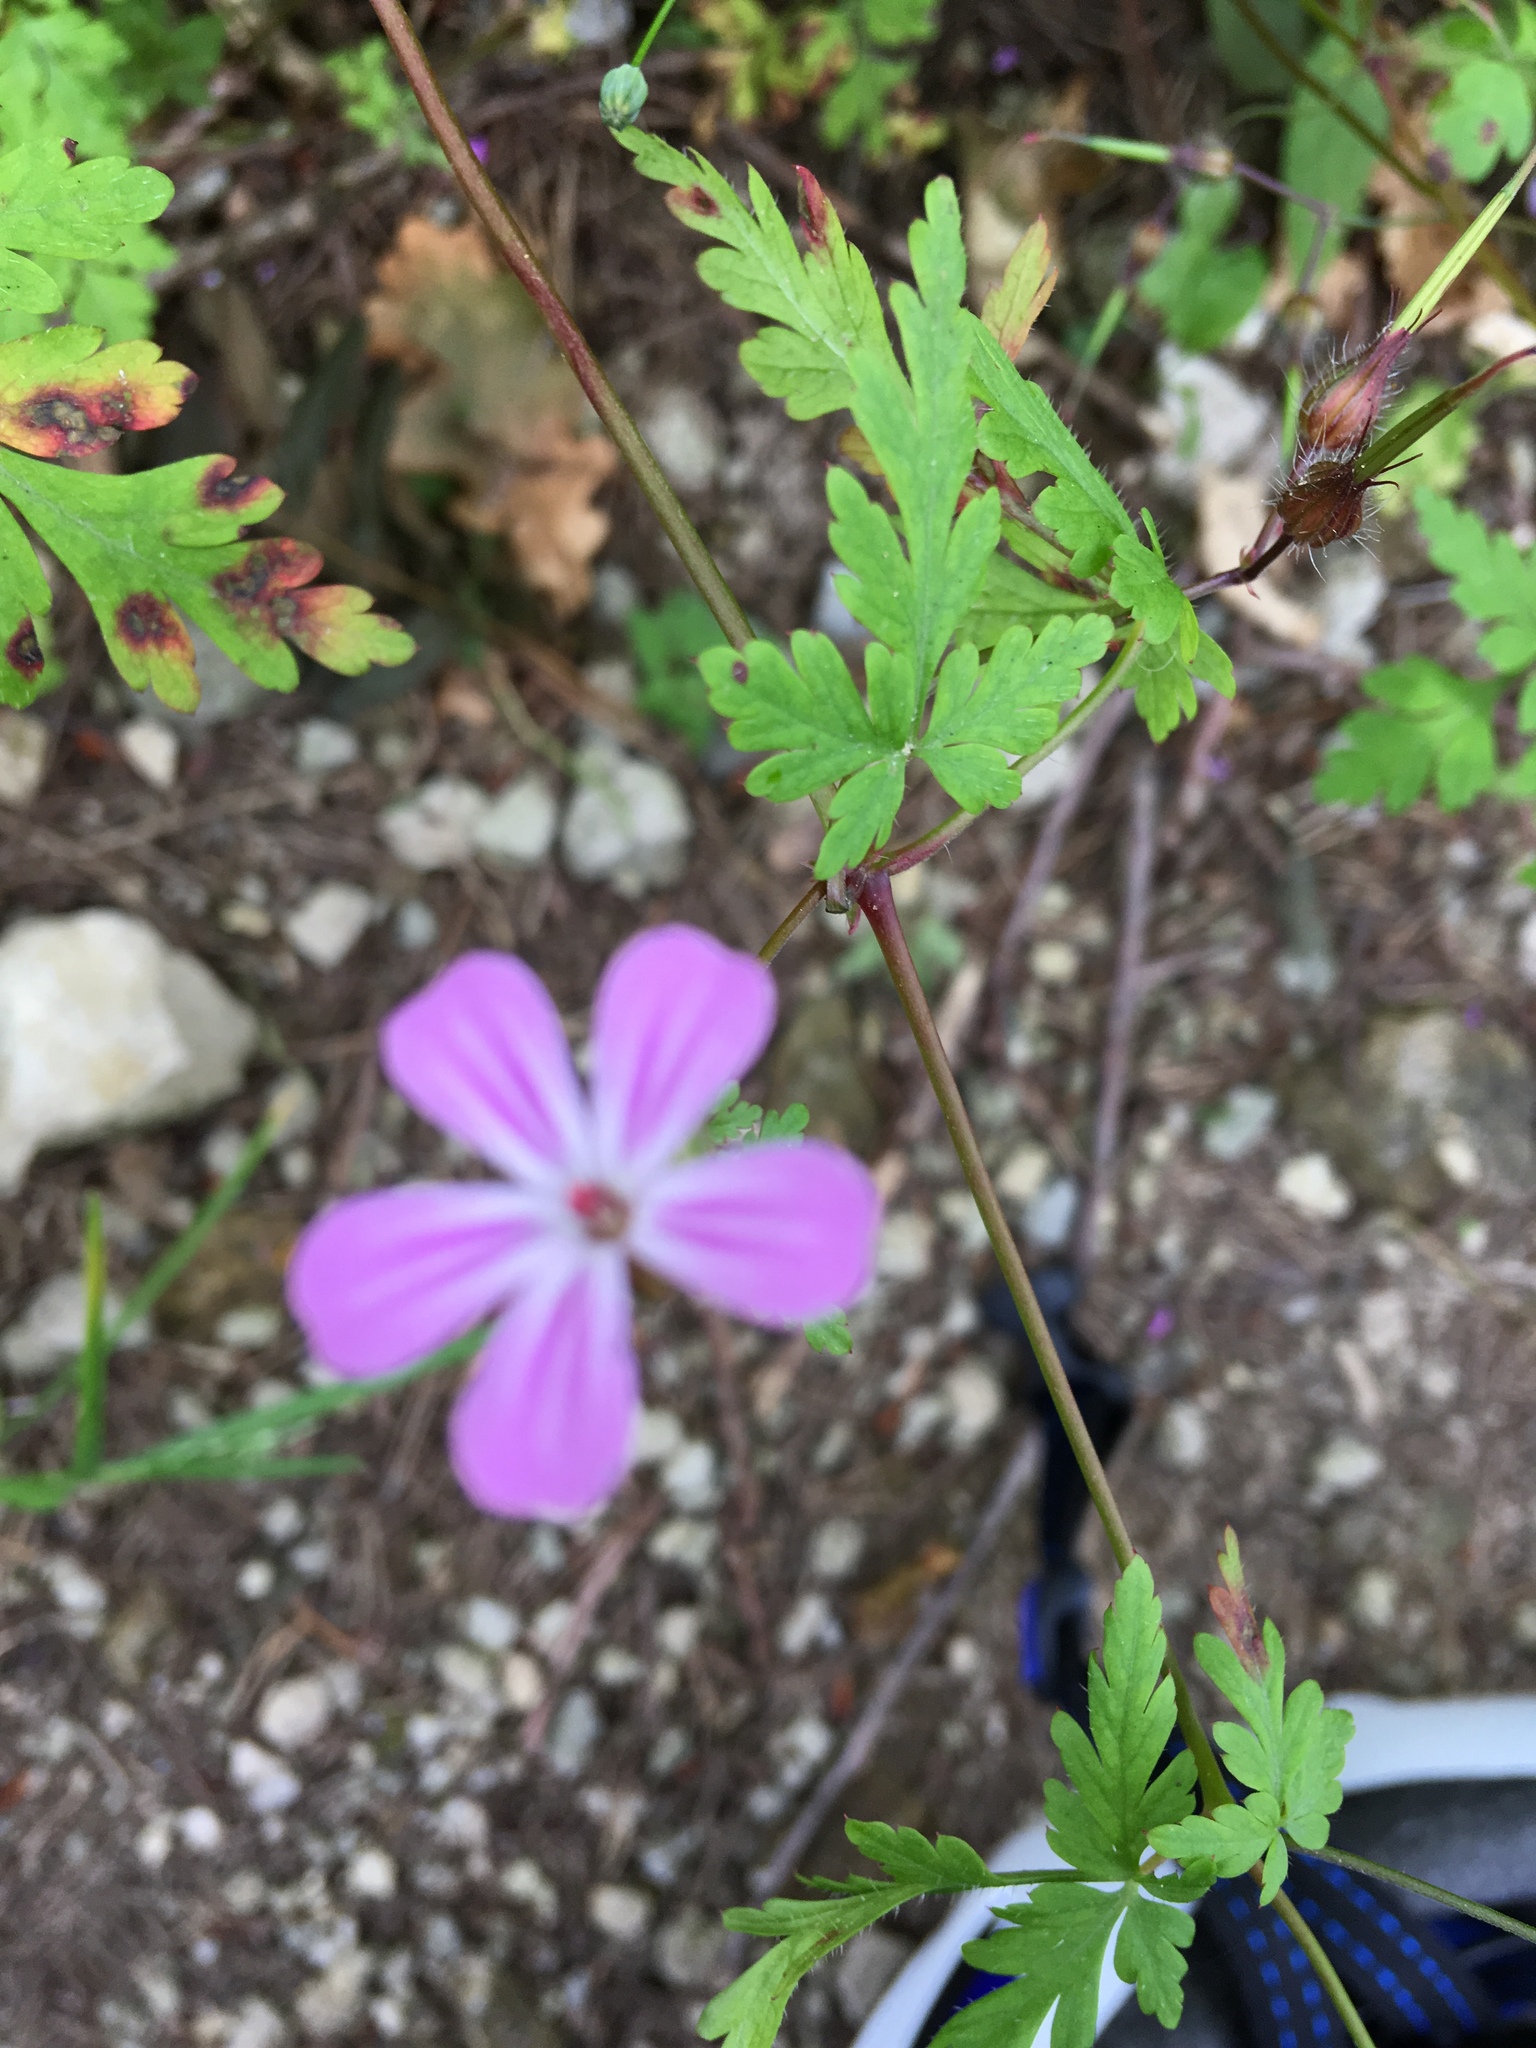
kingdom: Plantae
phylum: Tracheophyta
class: Magnoliopsida
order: Geraniales
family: Geraniaceae
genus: Geranium
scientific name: Geranium robertianum
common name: Herb-robert
